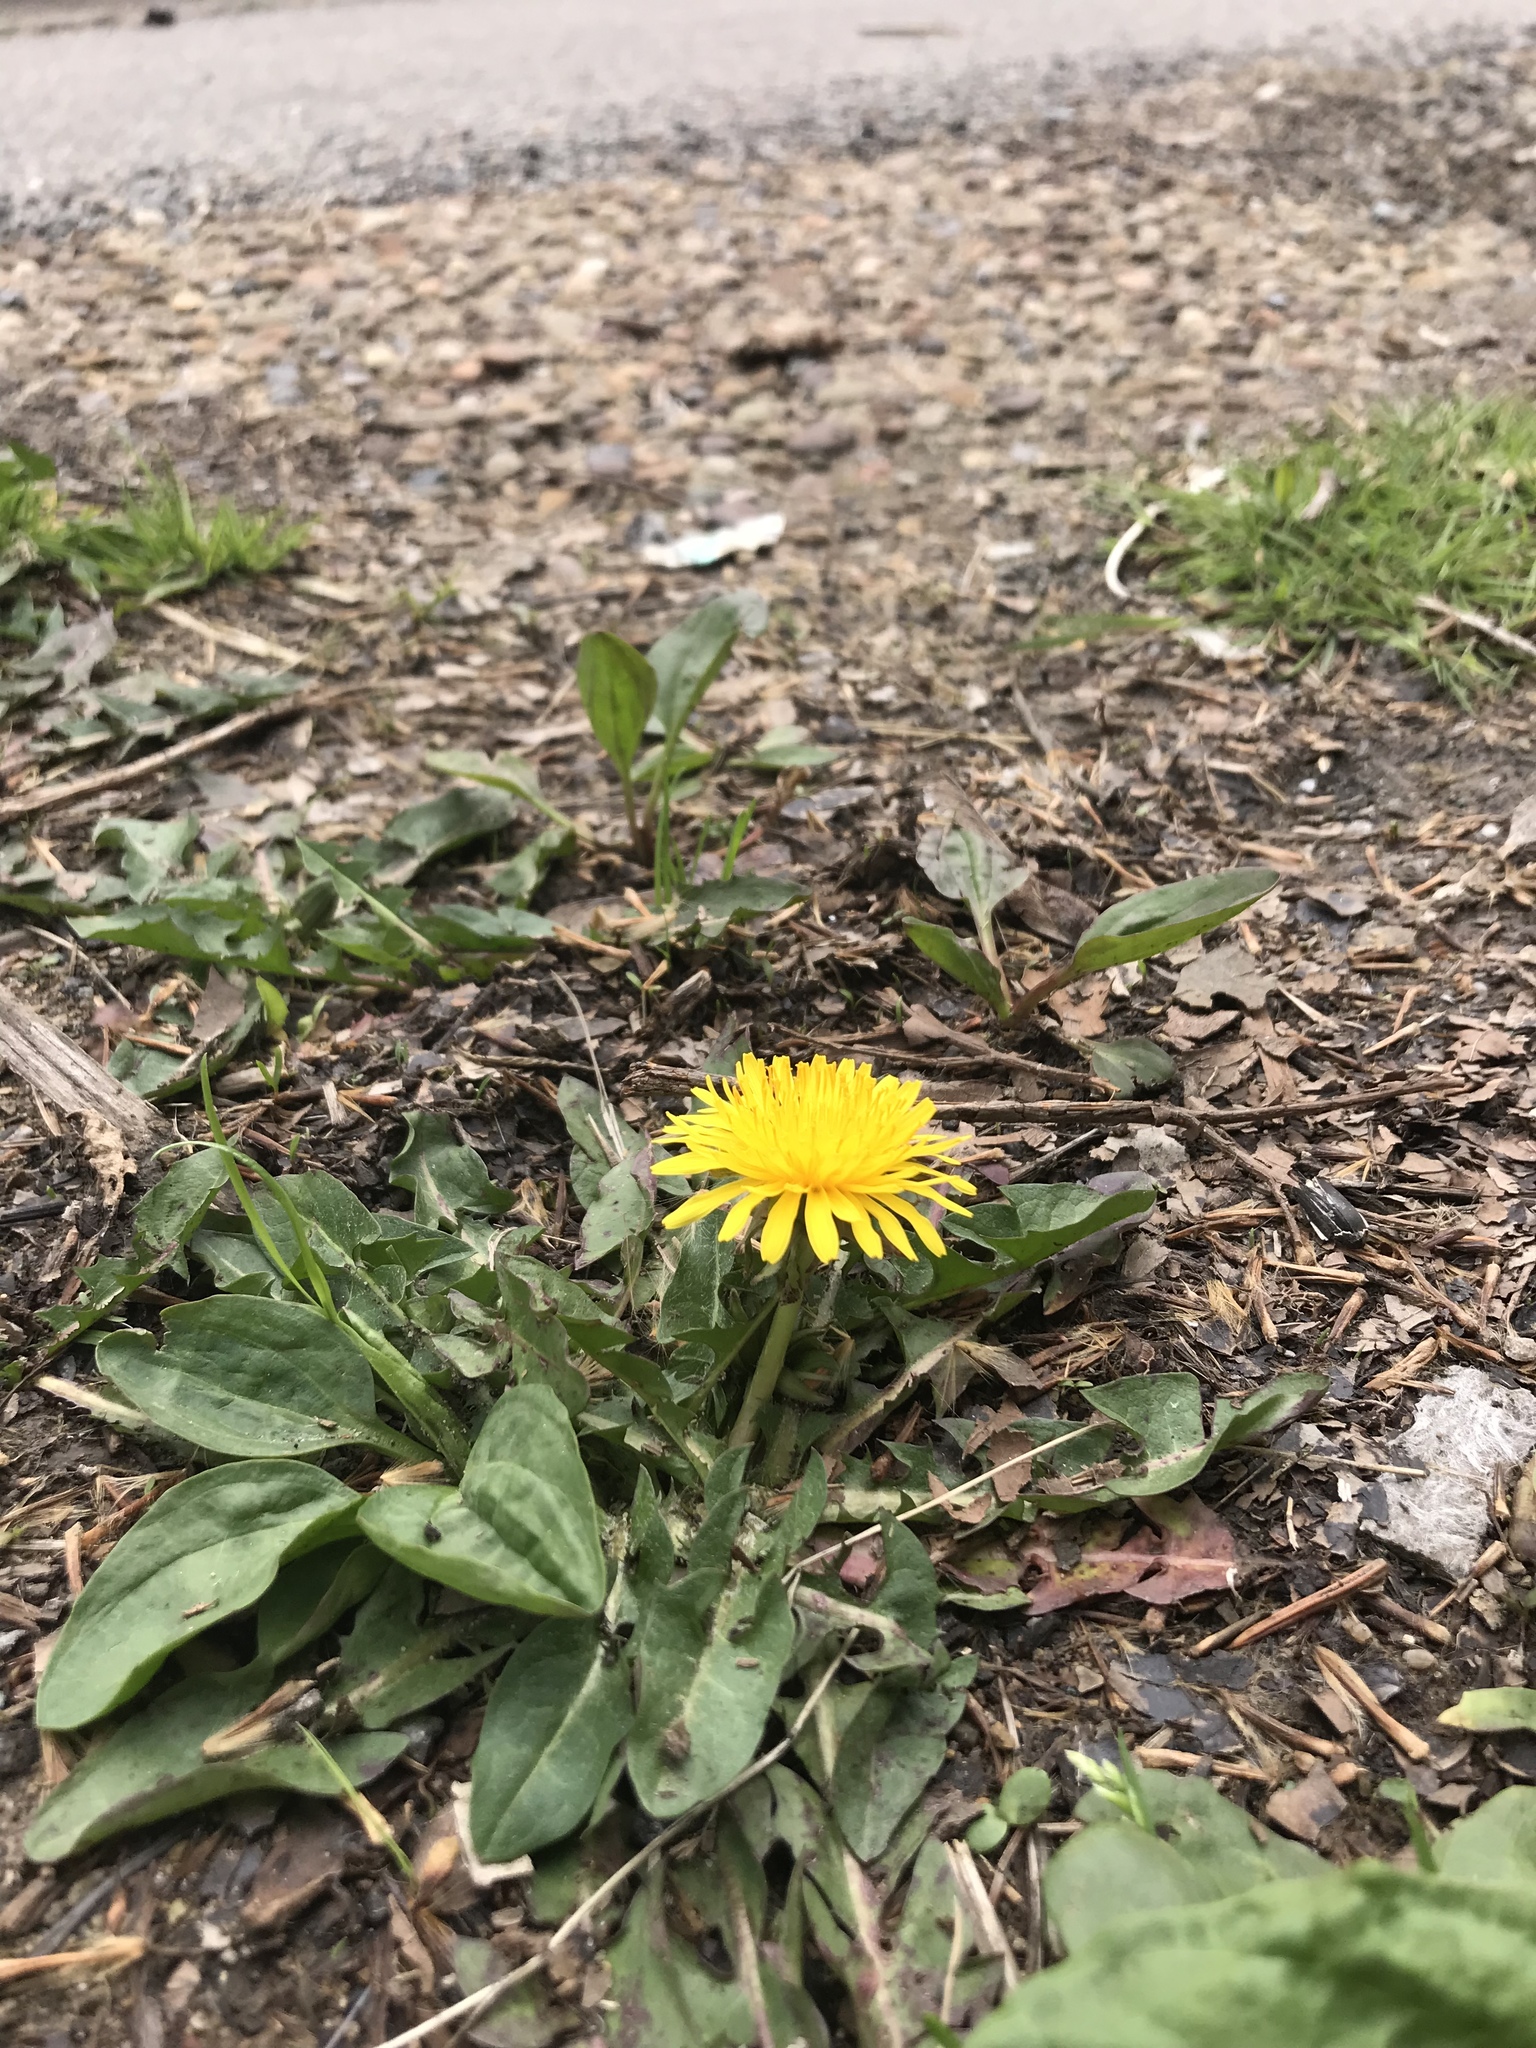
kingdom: Plantae
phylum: Tracheophyta
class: Magnoliopsida
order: Asterales
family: Asteraceae
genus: Taraxacum
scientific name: Taraxacum officinale
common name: Common dandelion
